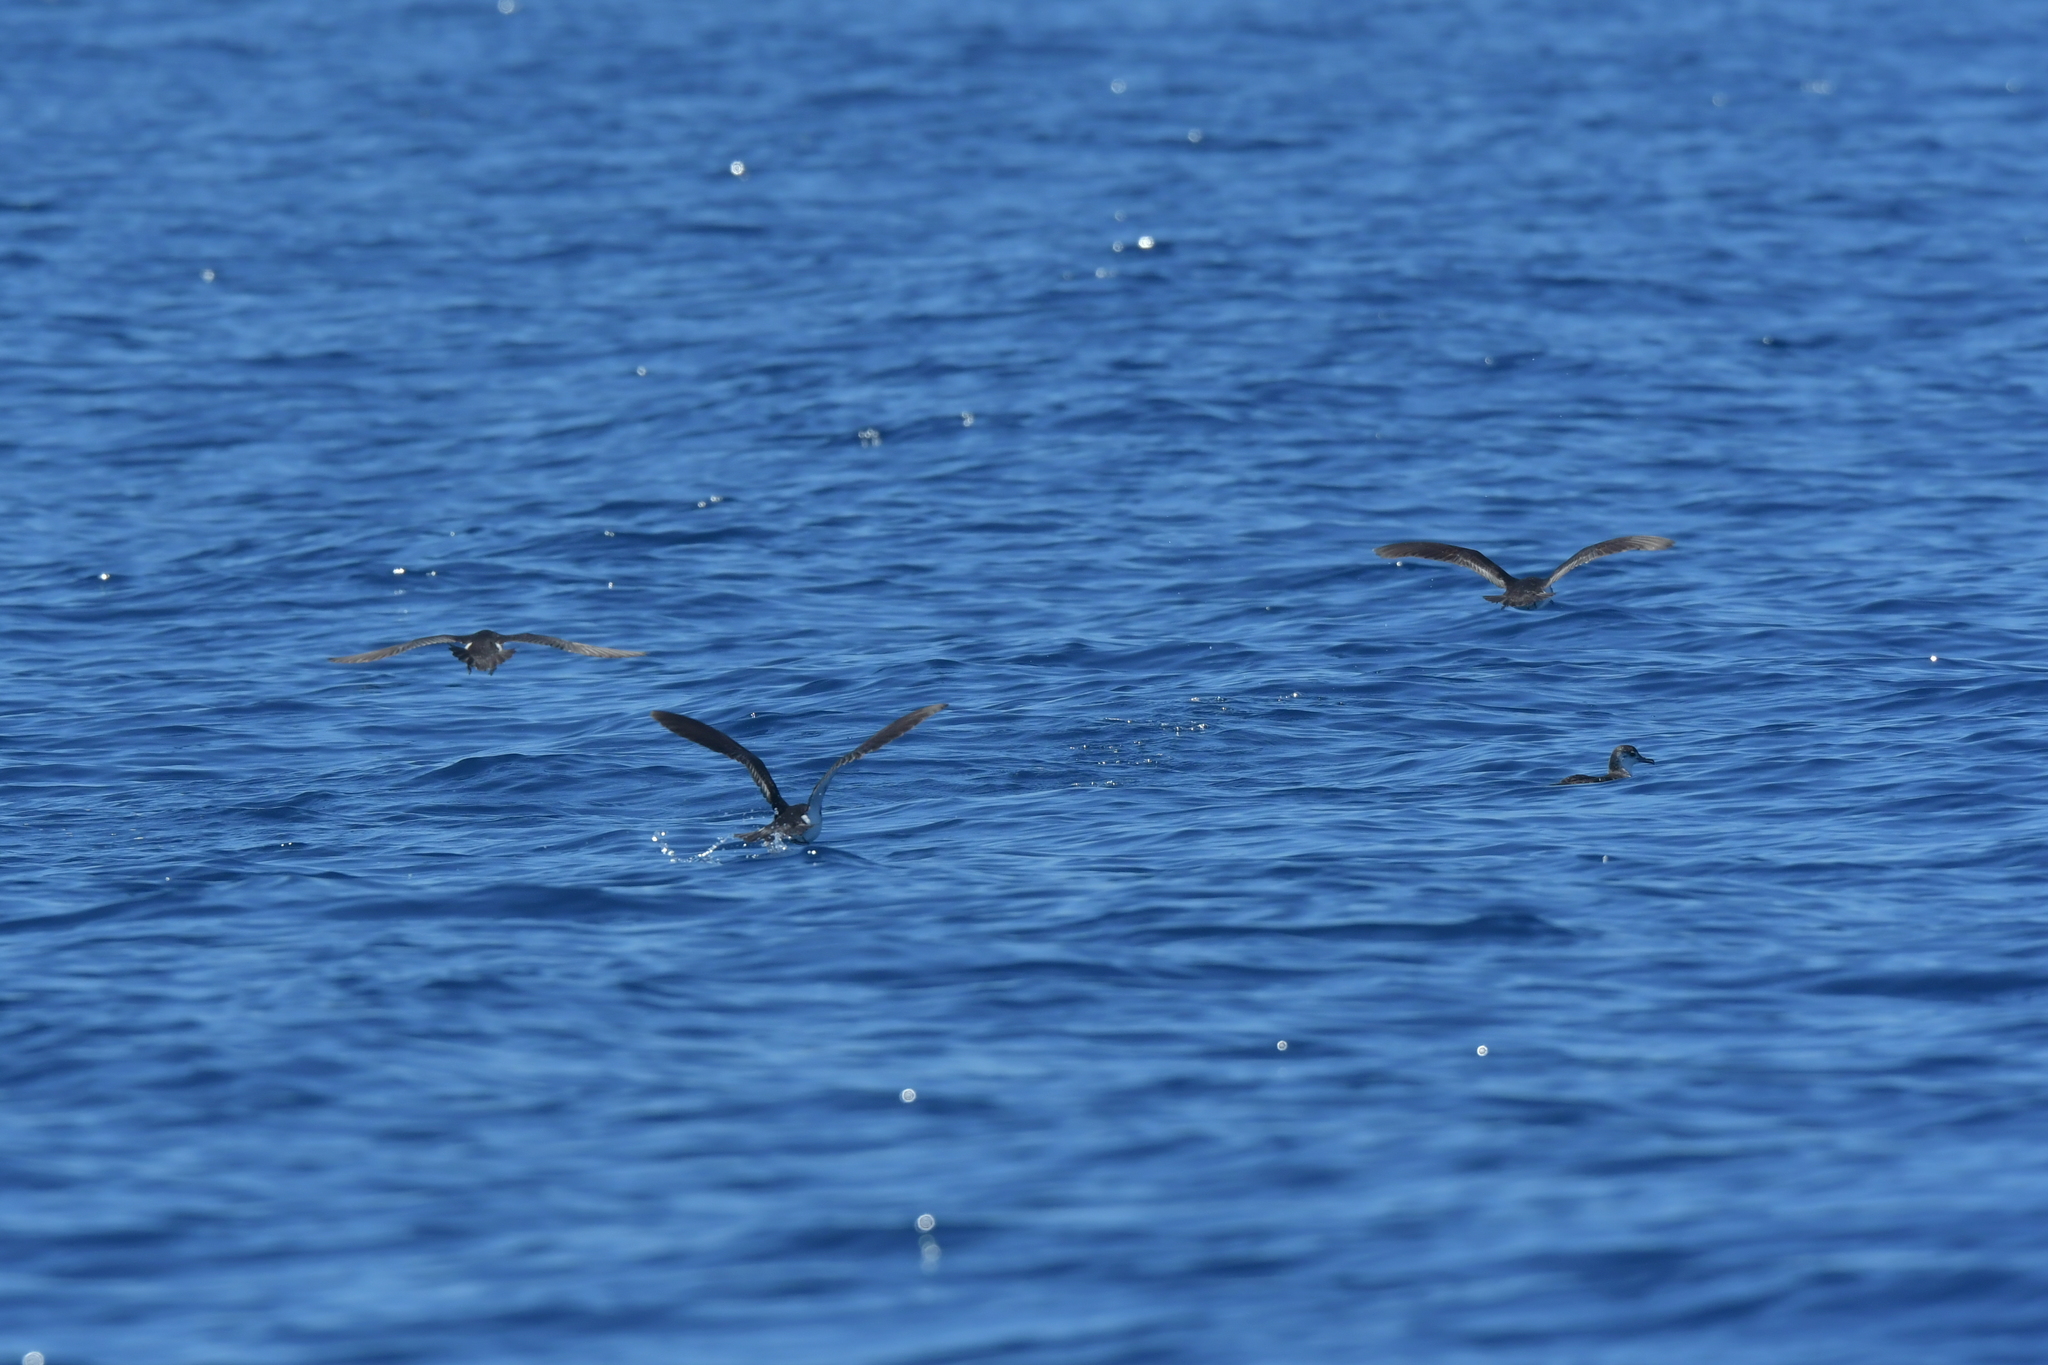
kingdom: Animalia
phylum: Chordata
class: Aves
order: Procellariiformes
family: Procellariidae
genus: Puffinus
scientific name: Puffinus assimilis
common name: Little shearwater
